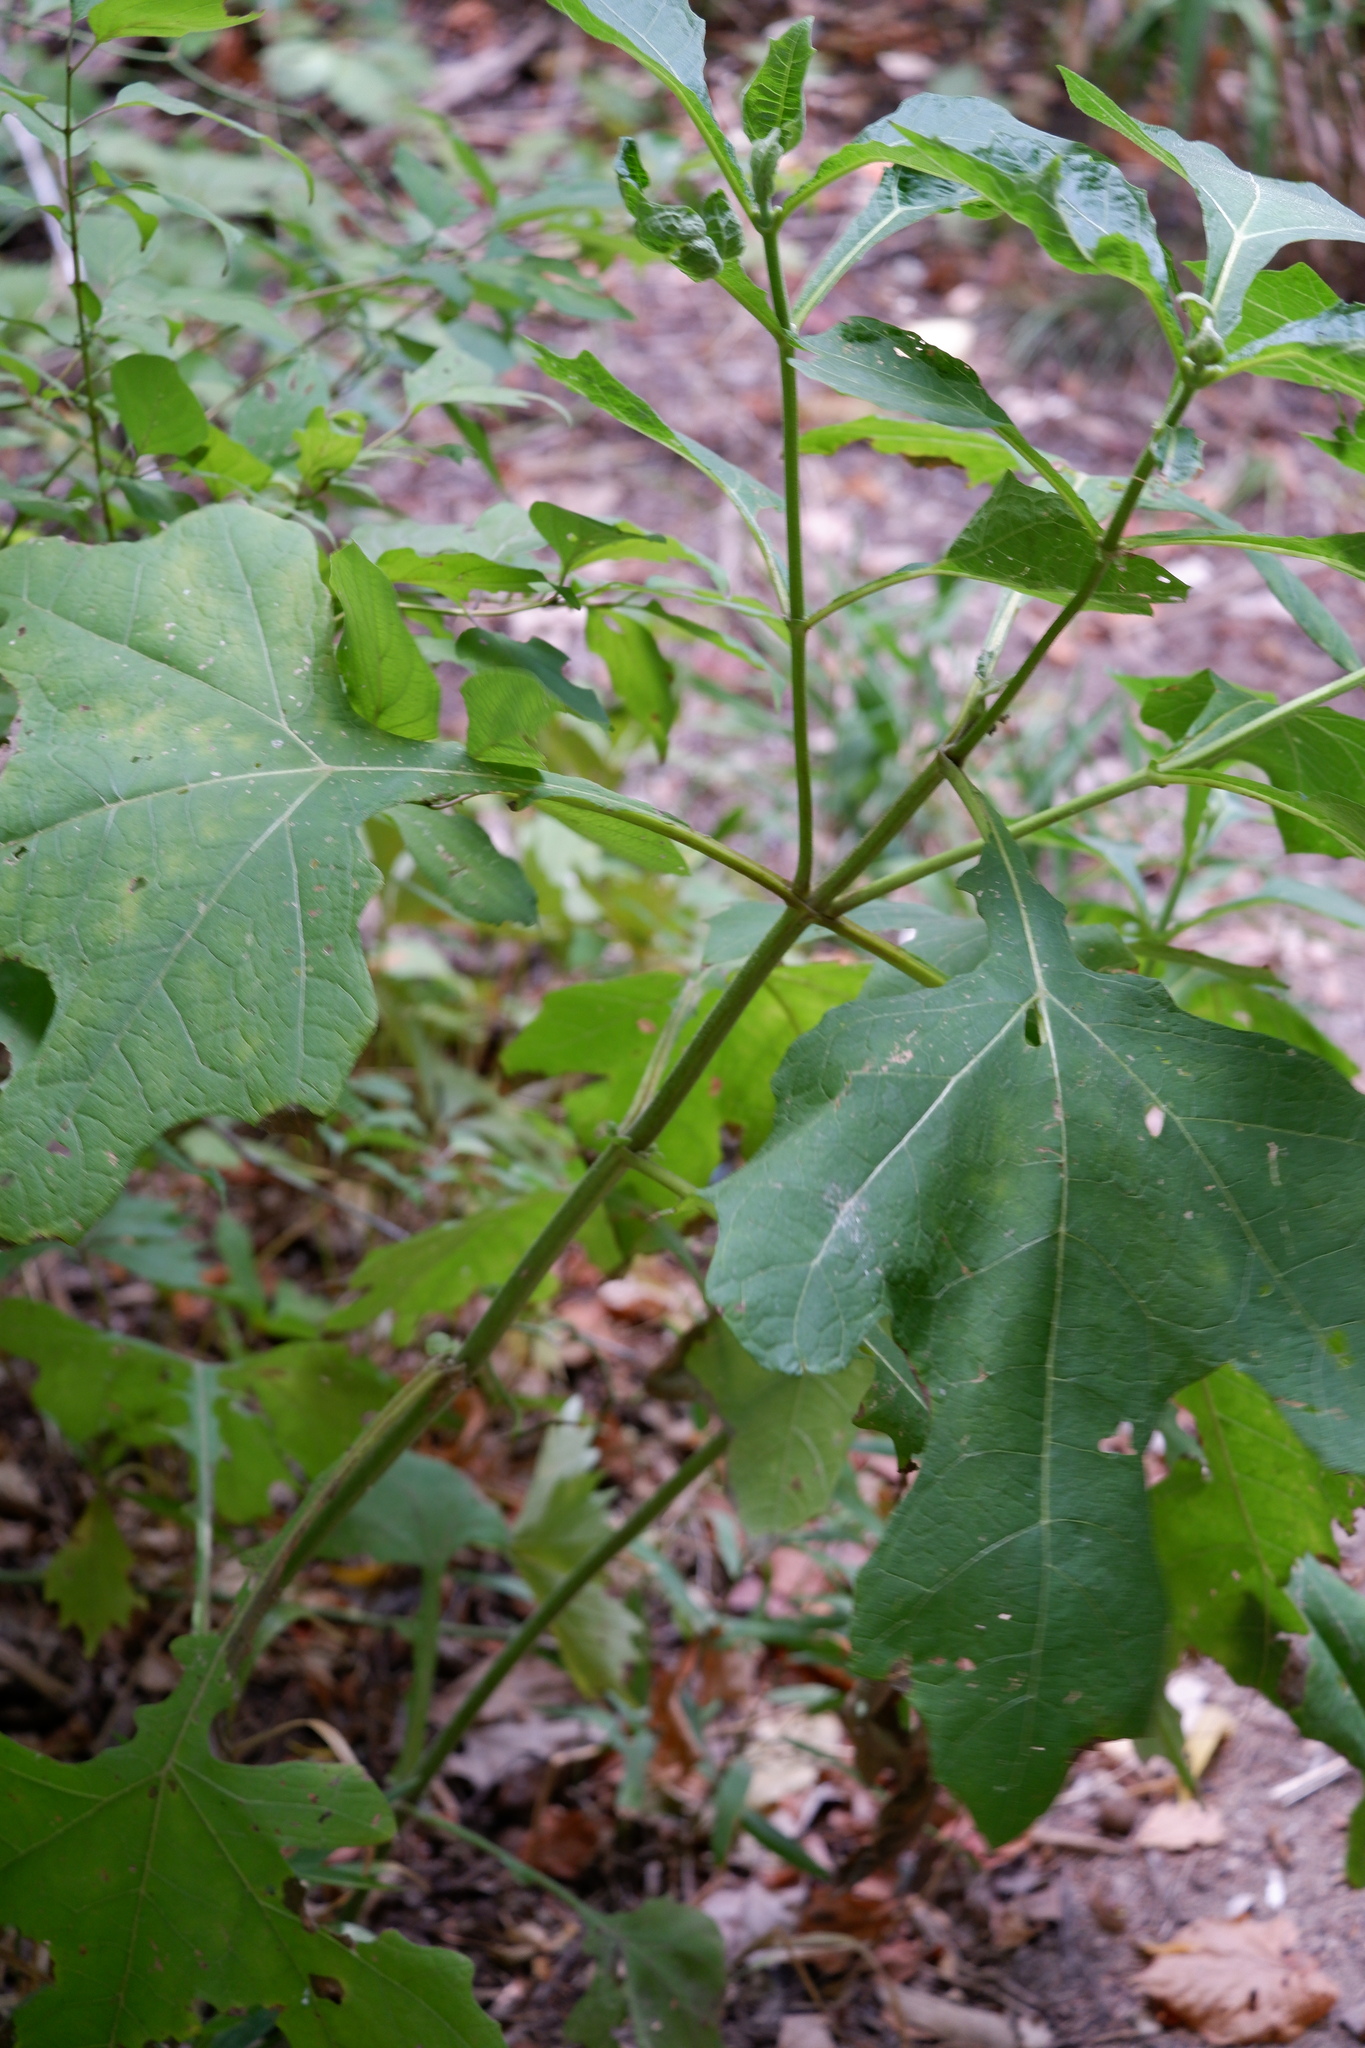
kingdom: Plantae
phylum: Tracheophyta
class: Magnoliopsida
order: Asterales
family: Asteraceae
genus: Smallanthus
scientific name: Smallanthus uvedalia
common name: Bear's-foot
